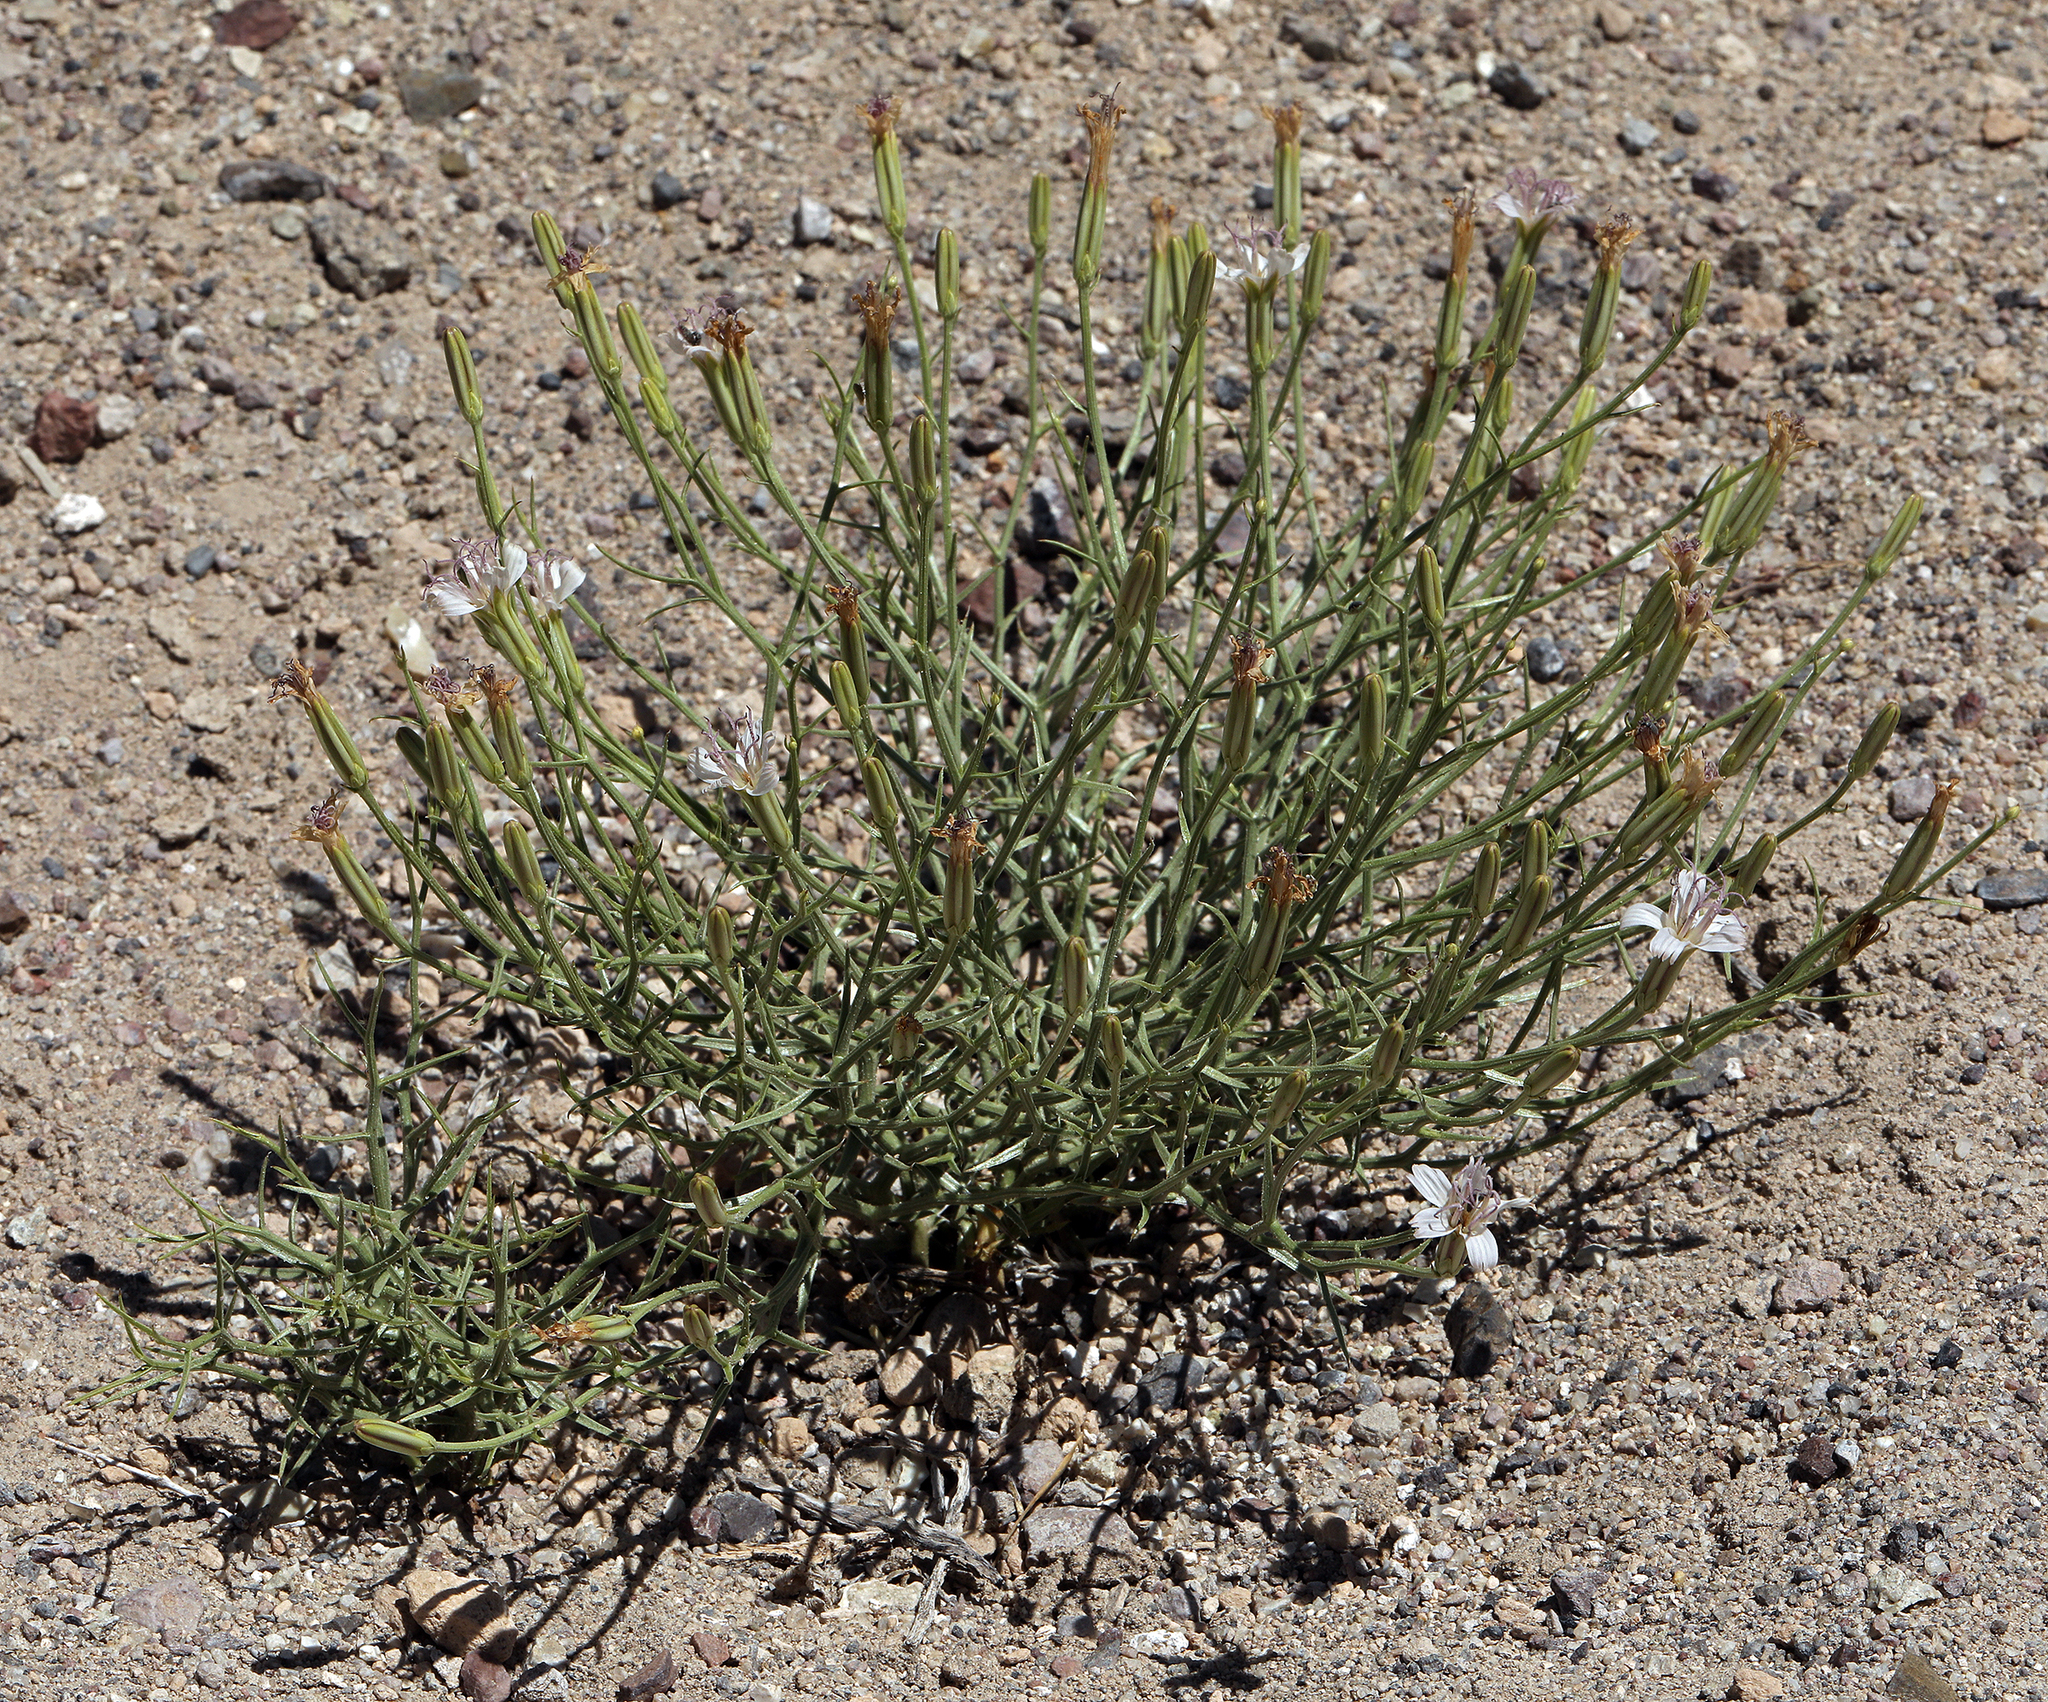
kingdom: Plantae
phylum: Tracheophyta
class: Magnoliopsida
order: Asterales
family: Asteraceae
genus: Chaetadelpha
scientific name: Chaetadelpha wheeleri
